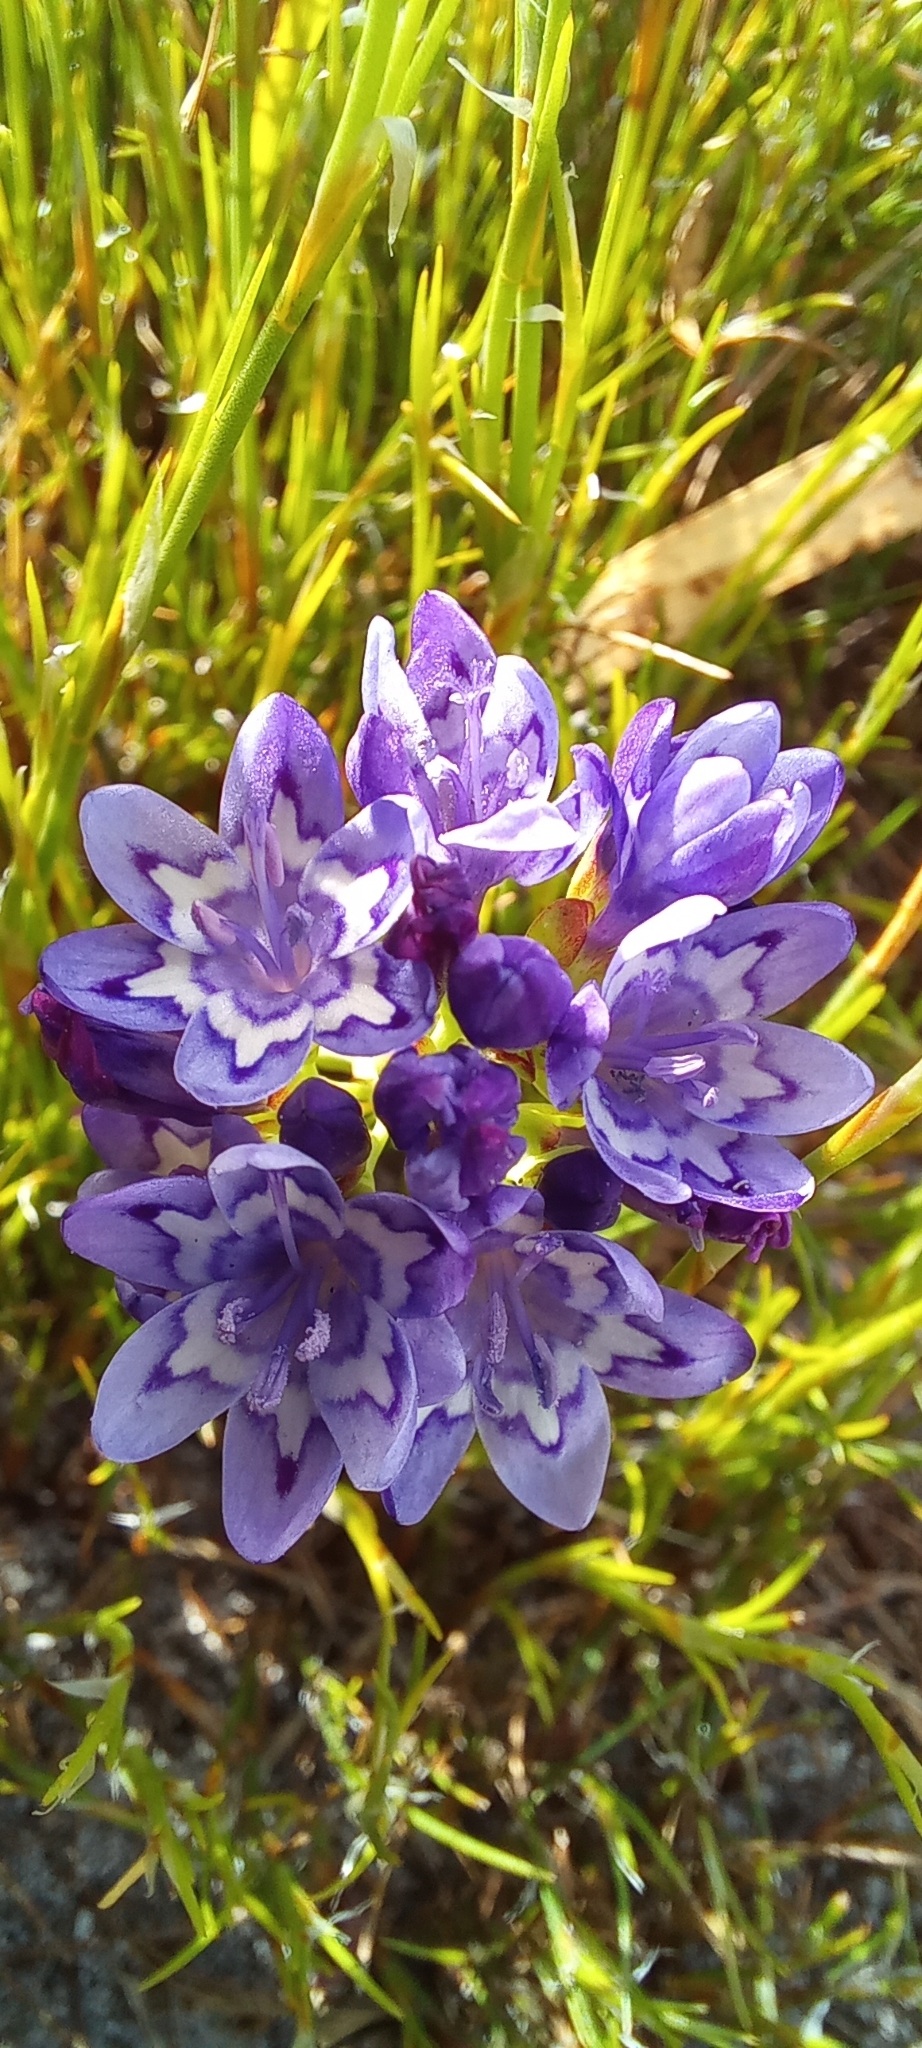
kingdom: Plantae
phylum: Tracheophyta
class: Liliopsida
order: Asparagales
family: Iridaceae
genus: Codonorhiza
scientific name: Codonorhiza corymbosa
